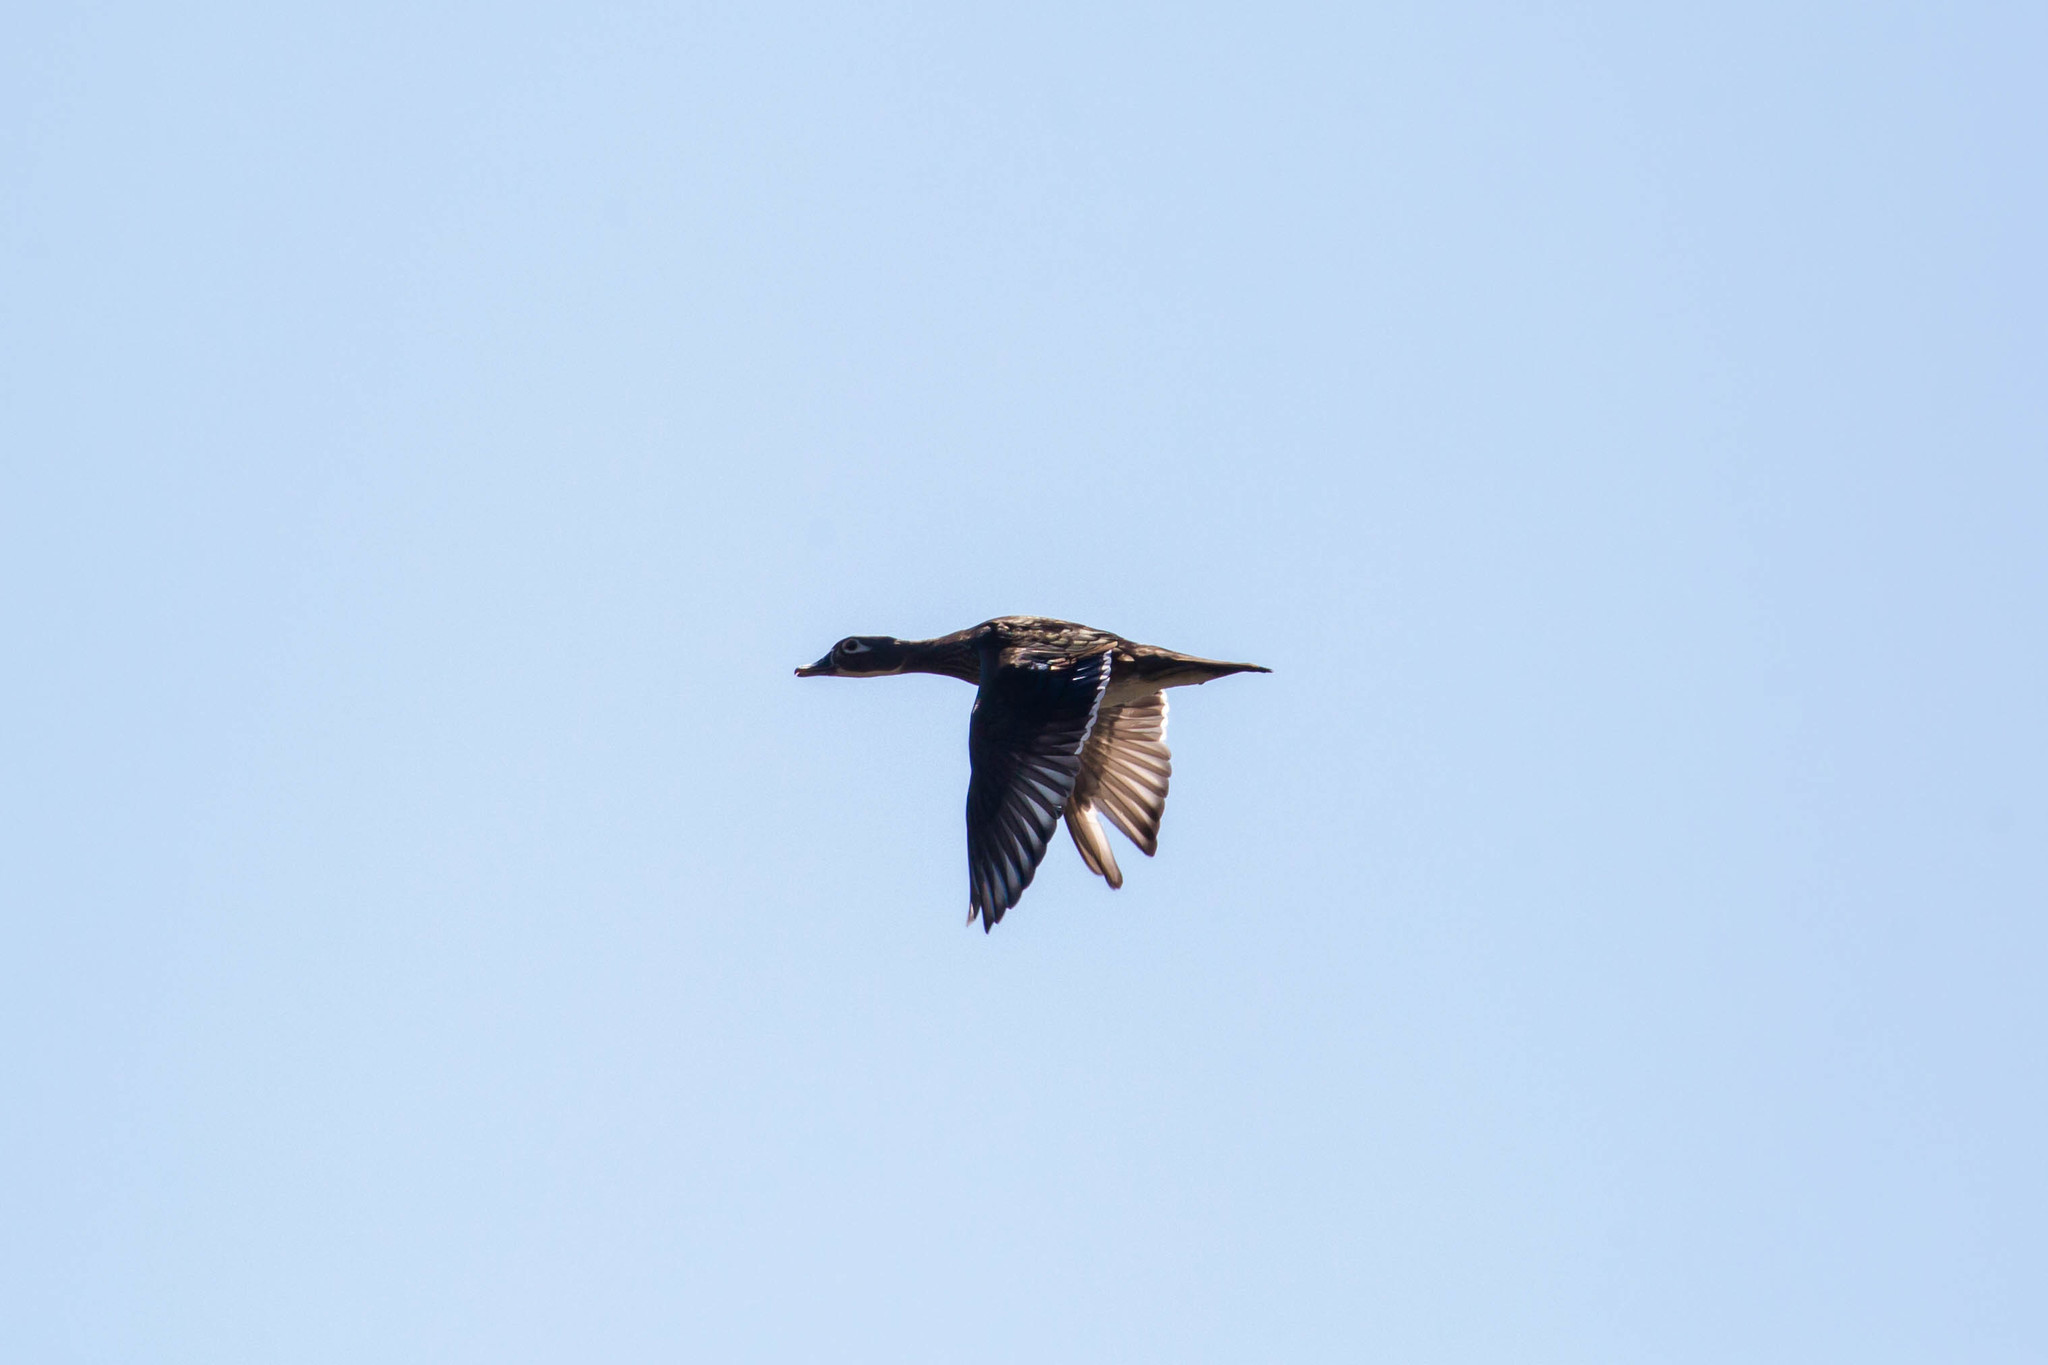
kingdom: Animalia
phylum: Chordata
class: Aves
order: Anseriformes
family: Anatidae
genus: Aix
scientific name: Aix sponsa
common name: Wood duck
